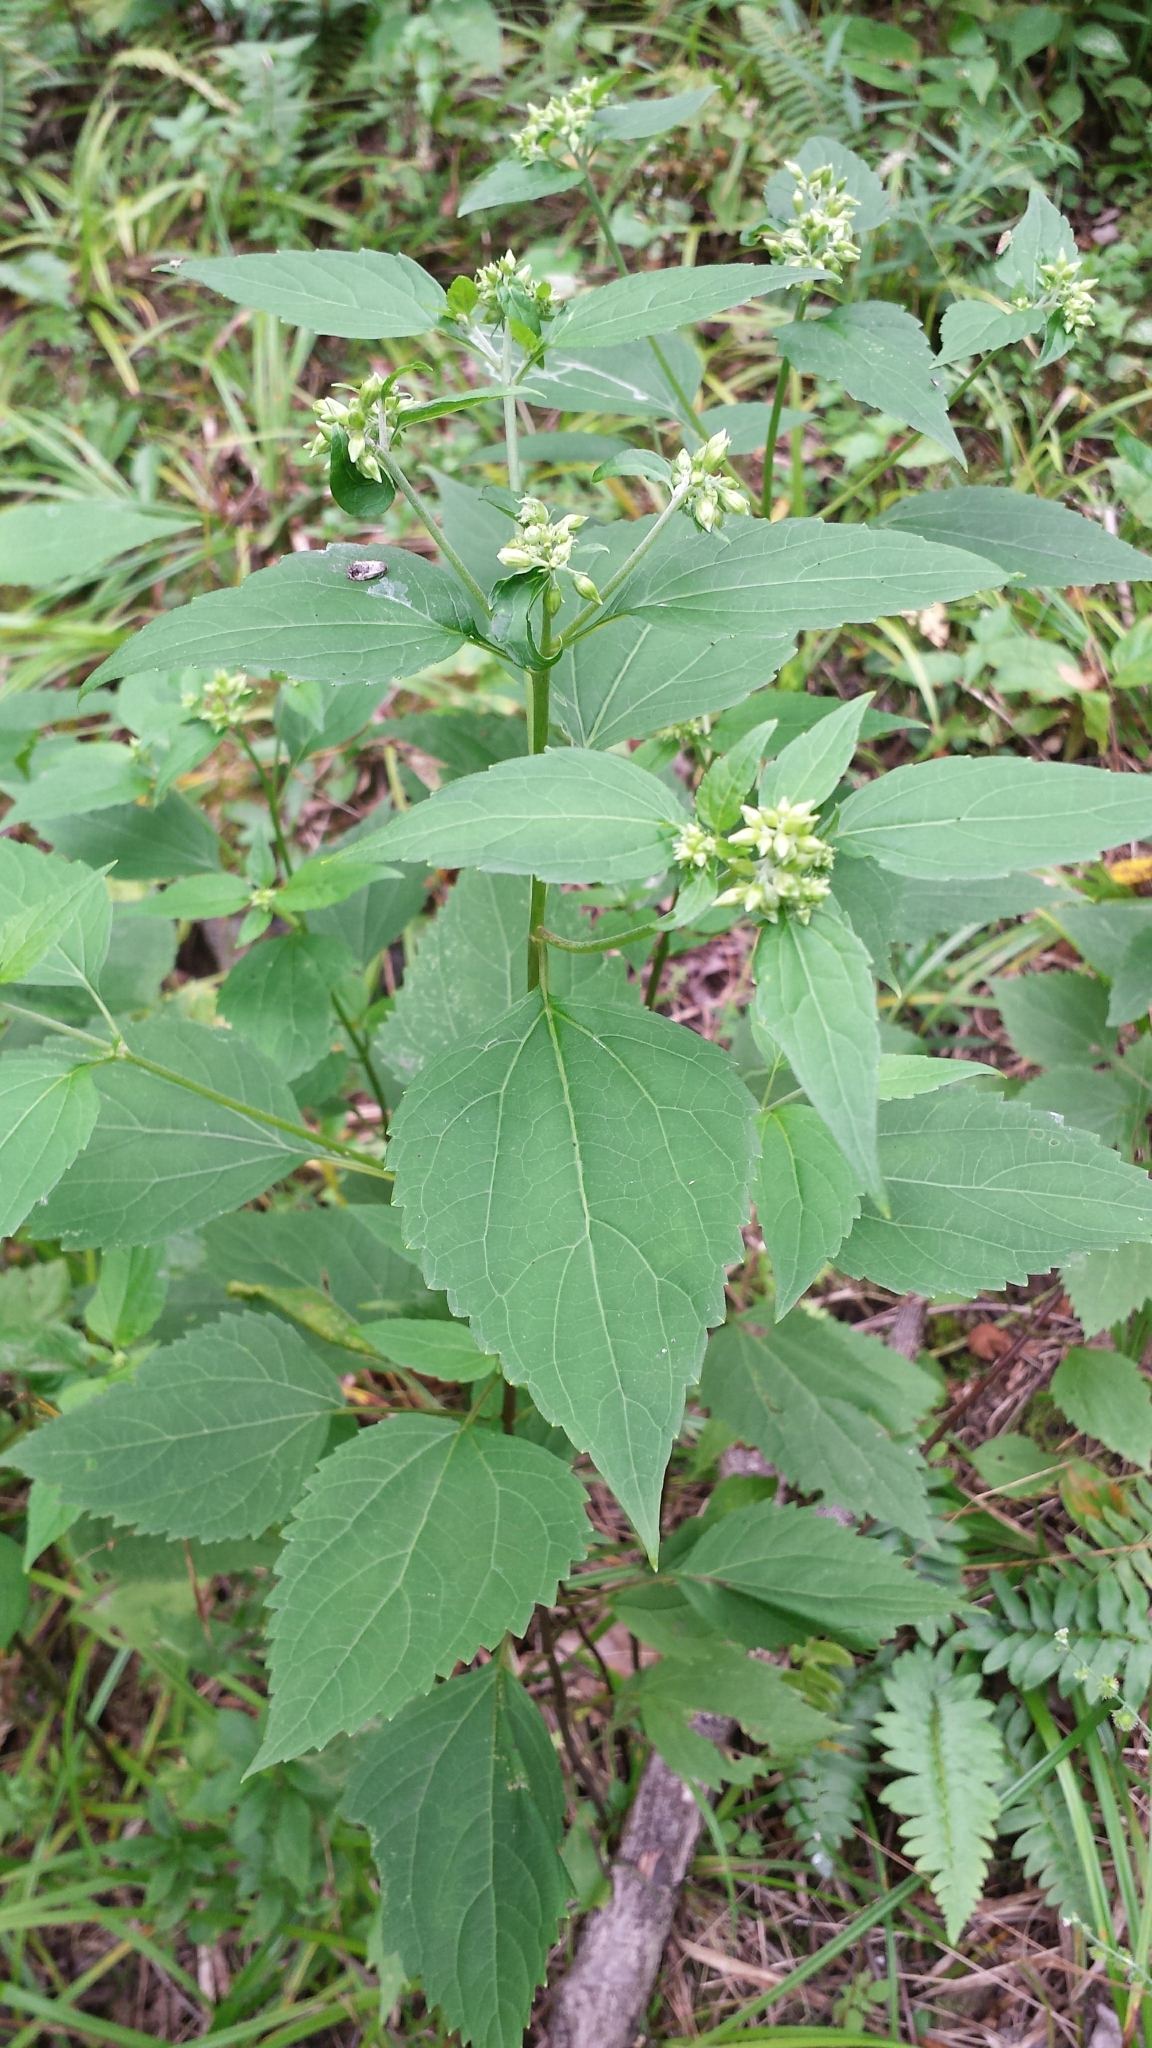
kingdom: Plantae
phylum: Tracheophyta
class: Magnoliopsida
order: Asterales
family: Asteraceae
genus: Ageratina
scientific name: Ageratina altissima
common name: White snakeroot
